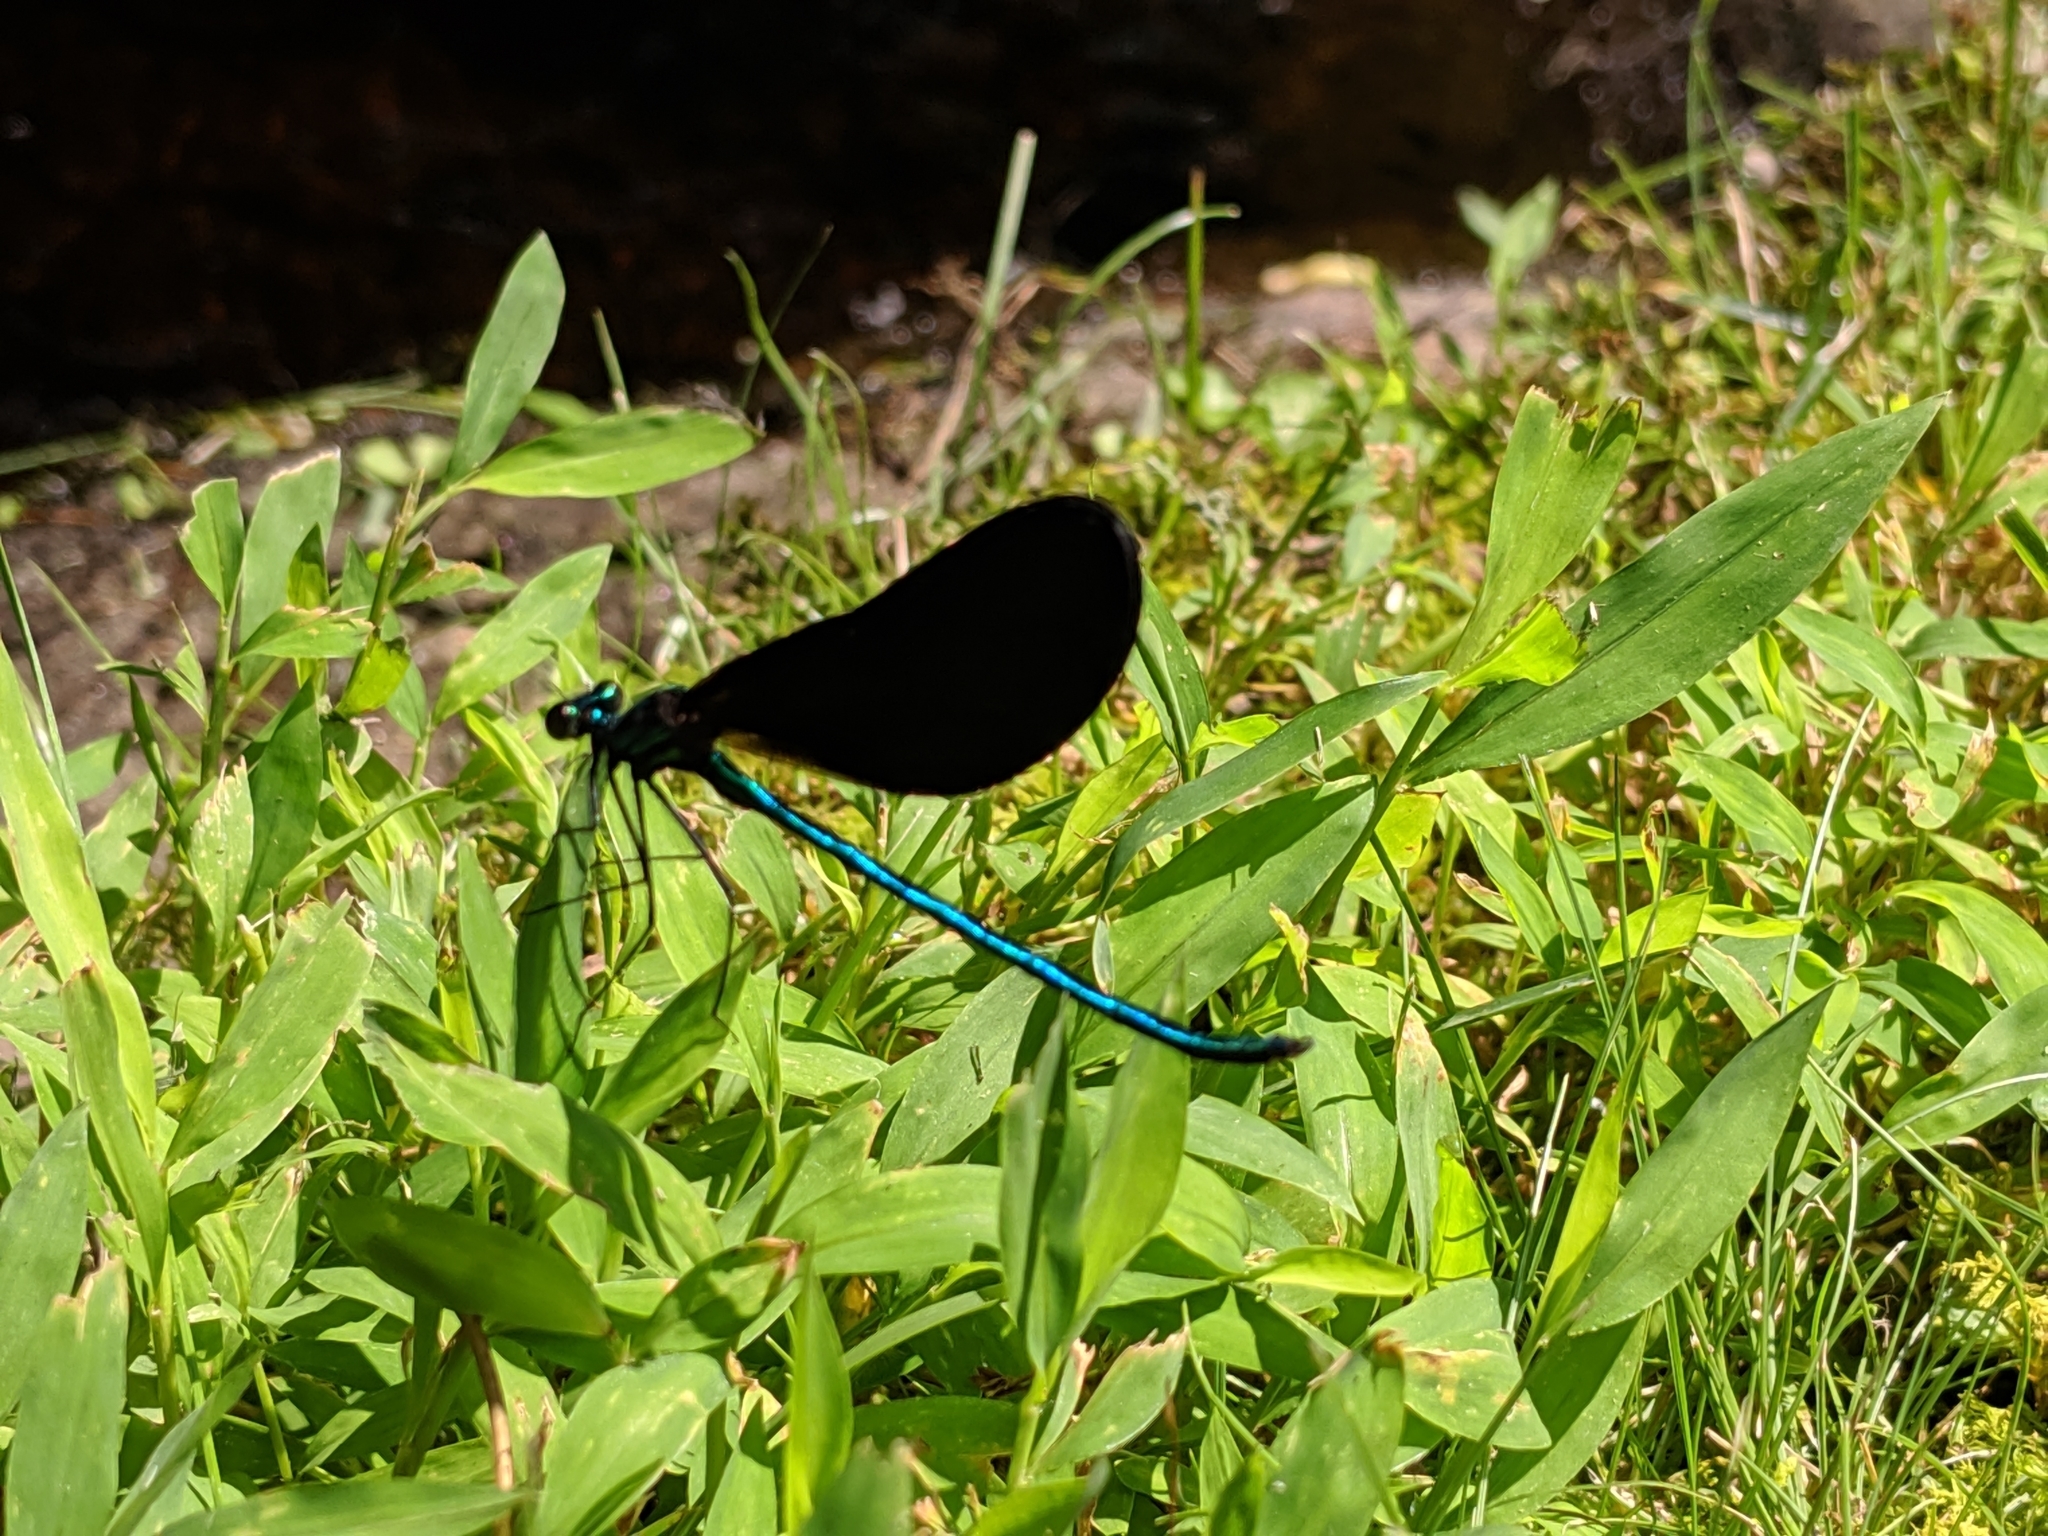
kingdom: Animalia
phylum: Arthropoda
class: Insecta
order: Odonata
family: Calopterygidae
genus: Calopteryx
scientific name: Calopteryx maculata
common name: Ebony jewelwing
